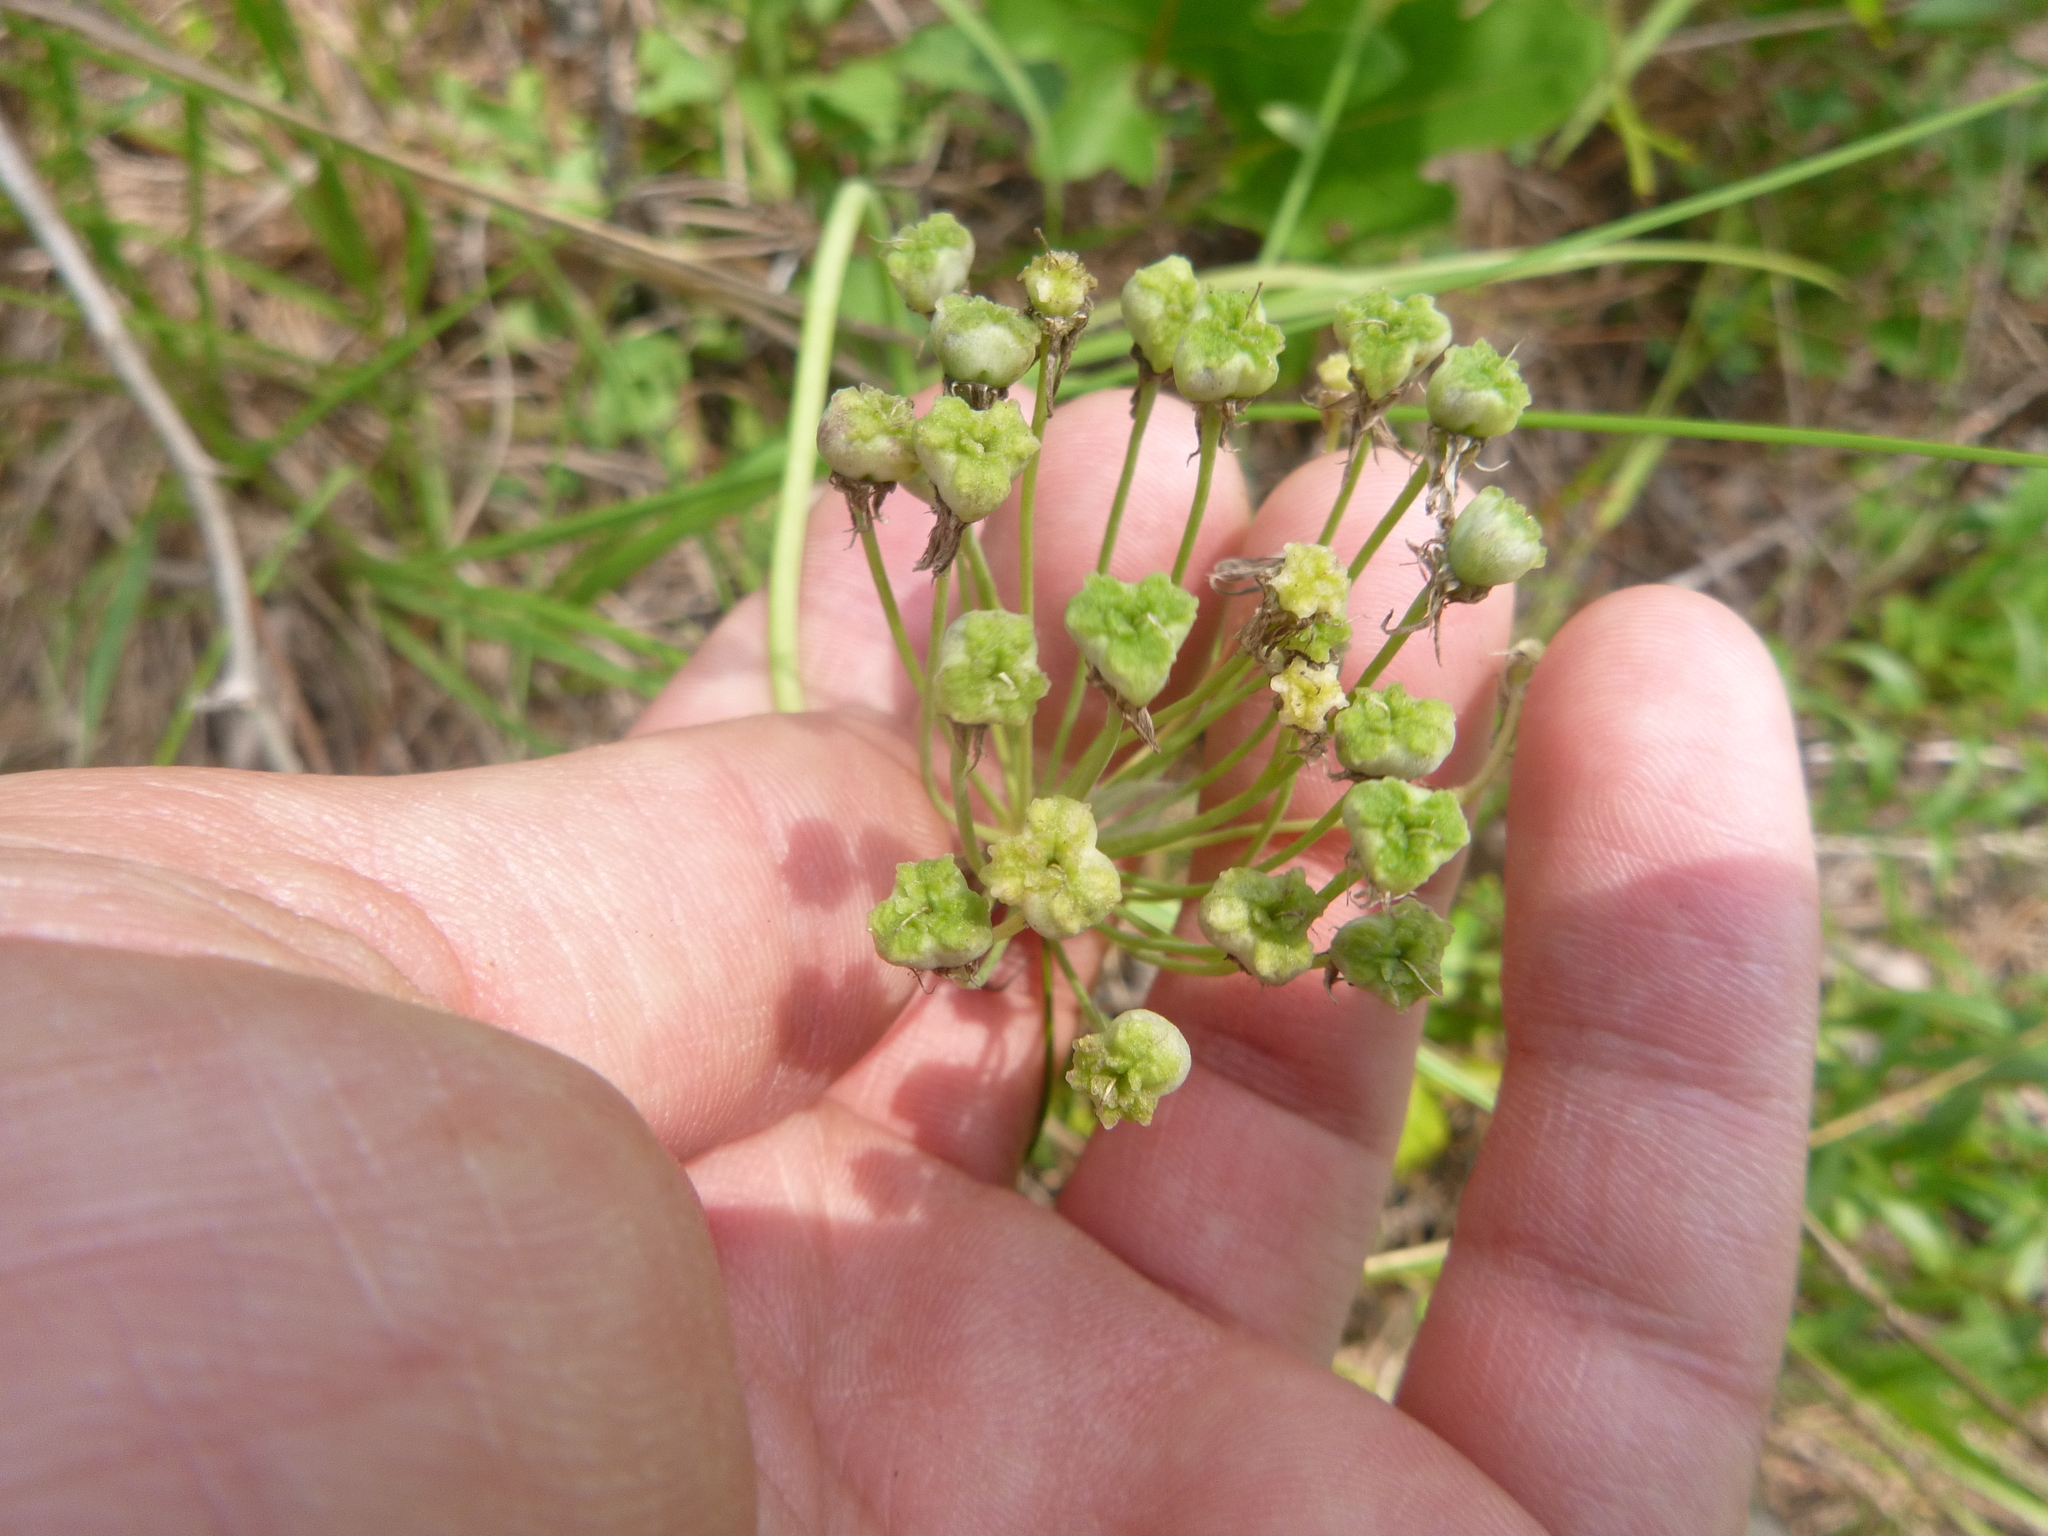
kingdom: Plantae
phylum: Tracheophyta
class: Liliopsida
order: Asparagales
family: Amaryllidaceae
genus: Allium
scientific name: Allium cuthbertii
